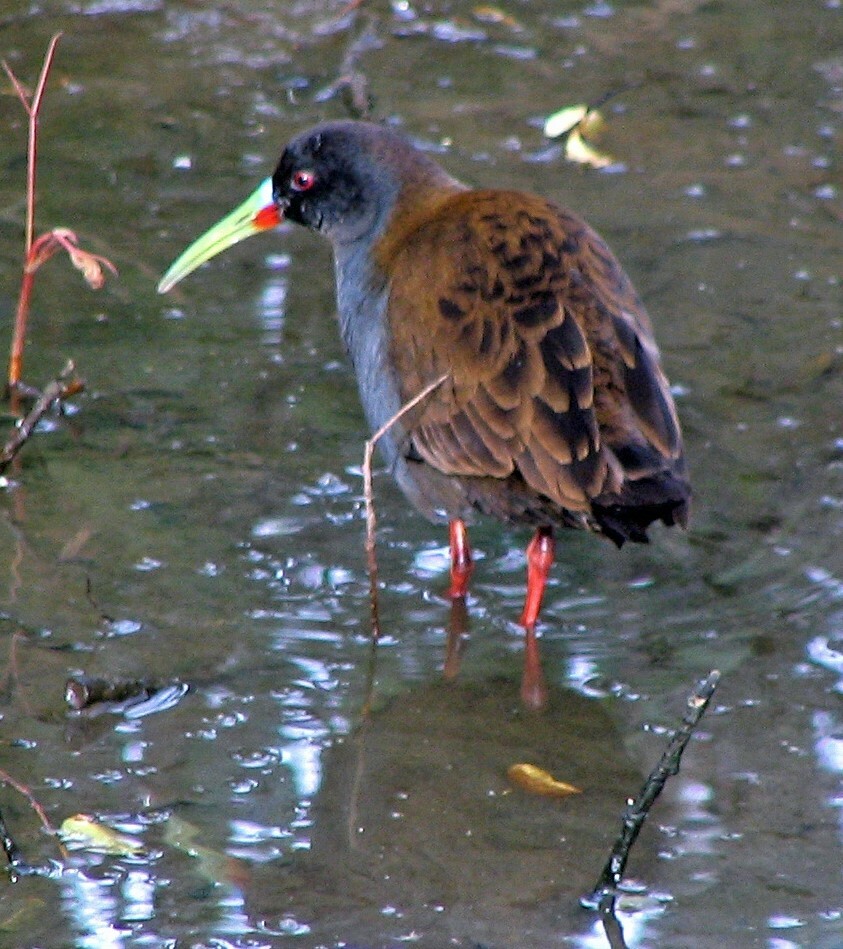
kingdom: Animalia
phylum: Chordata
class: Aves
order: Gruiformes
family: Rallidae
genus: Pardirallus
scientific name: Pardirallus sanguinolentus
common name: Plumbeous rail
